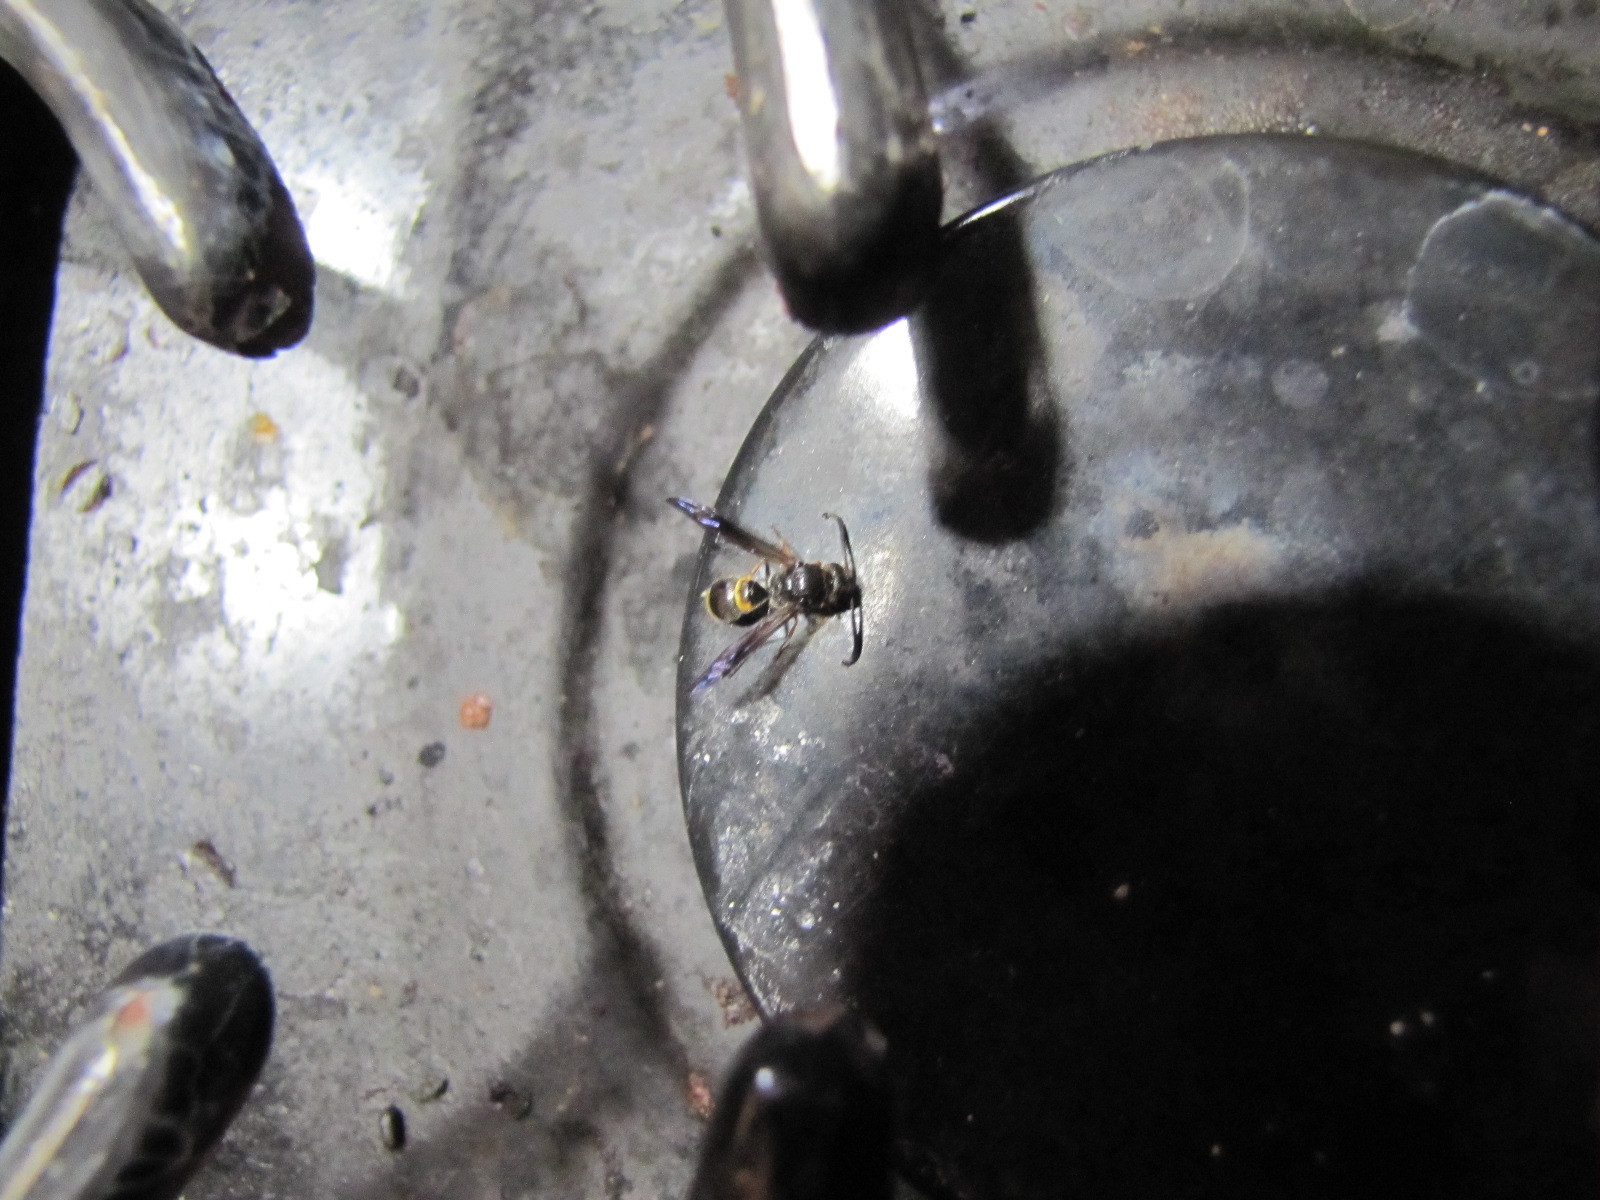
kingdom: Animalia
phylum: Arthropoda
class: Insecta
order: Hymenoptera
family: Vespidae
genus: Ancistrocerus
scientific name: Ancistrocerus unifasciatus
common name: One-banded mason wasp
